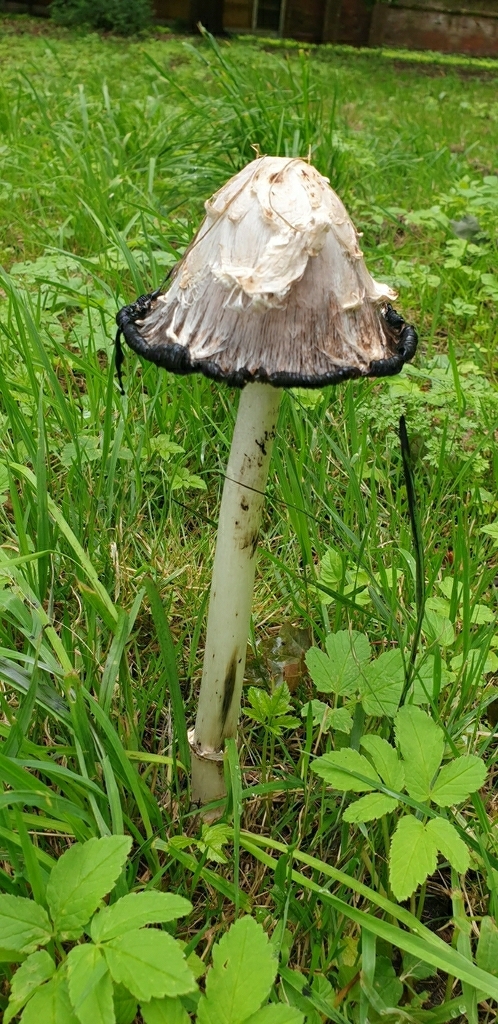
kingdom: Fungi
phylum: Basidiomycota
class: Agaricomycetes
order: Agaricales
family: Agaricaceae
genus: Coprinus
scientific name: Coprinus comatus
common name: Lawyer's wig
